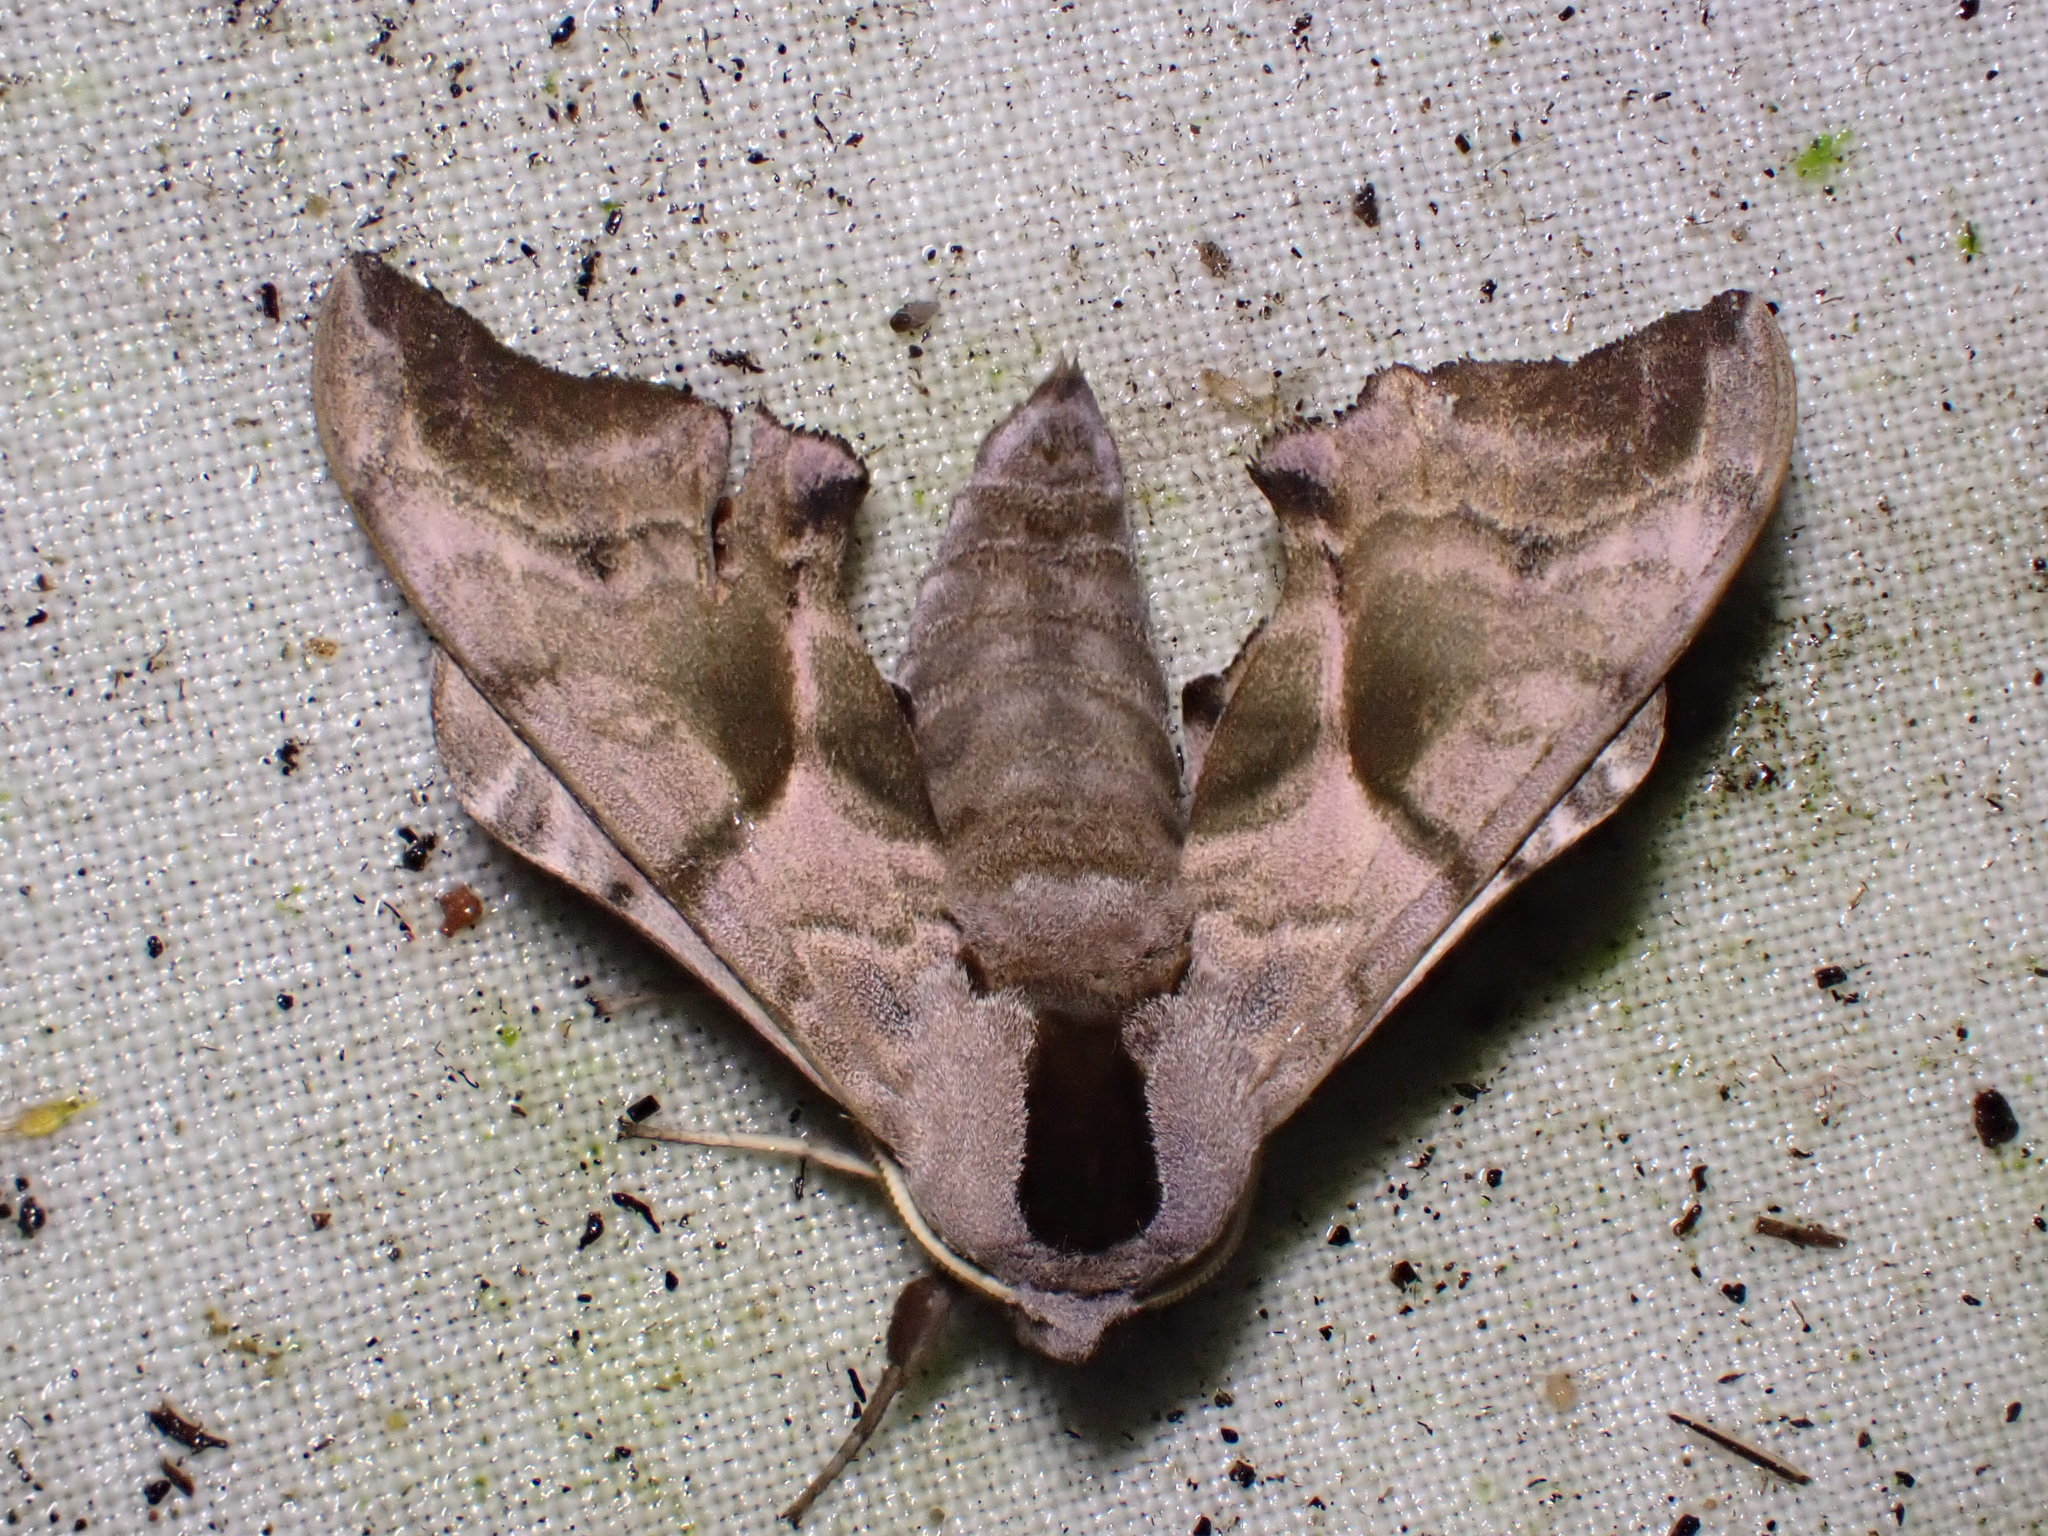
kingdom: Animalia
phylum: Arthropoda
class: Insecta
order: Lepidoptera
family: Sphingidae
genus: Smerinthus
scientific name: Smerinthus ocellata
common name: Eyed hawk-moth
